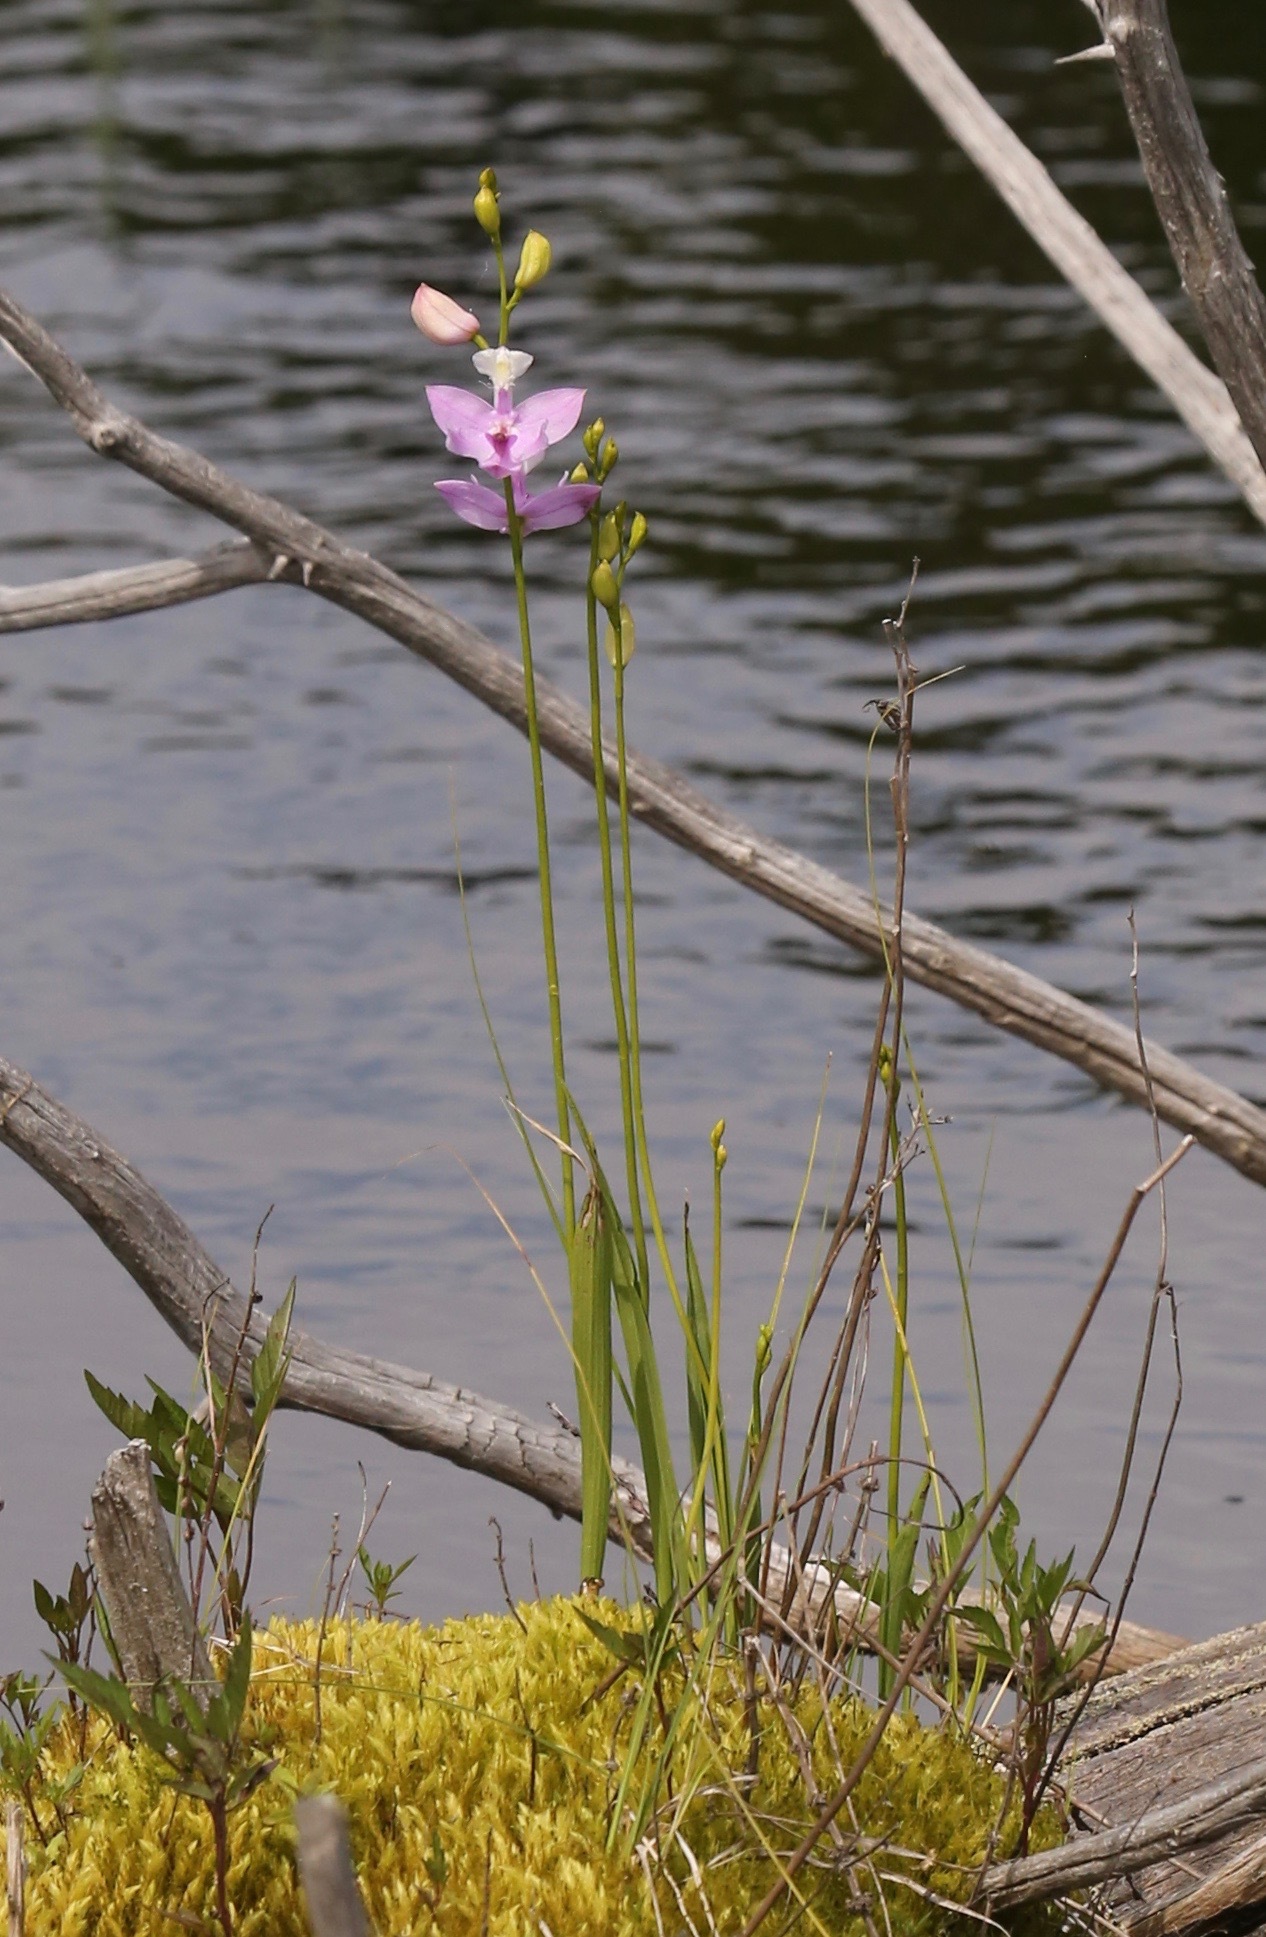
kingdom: Plantae
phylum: Tracheophyta
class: Liliopsida
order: Asparagales
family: Orchidaceae
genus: Calopogon
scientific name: Calopogon tuberosus
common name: Grass-pink
